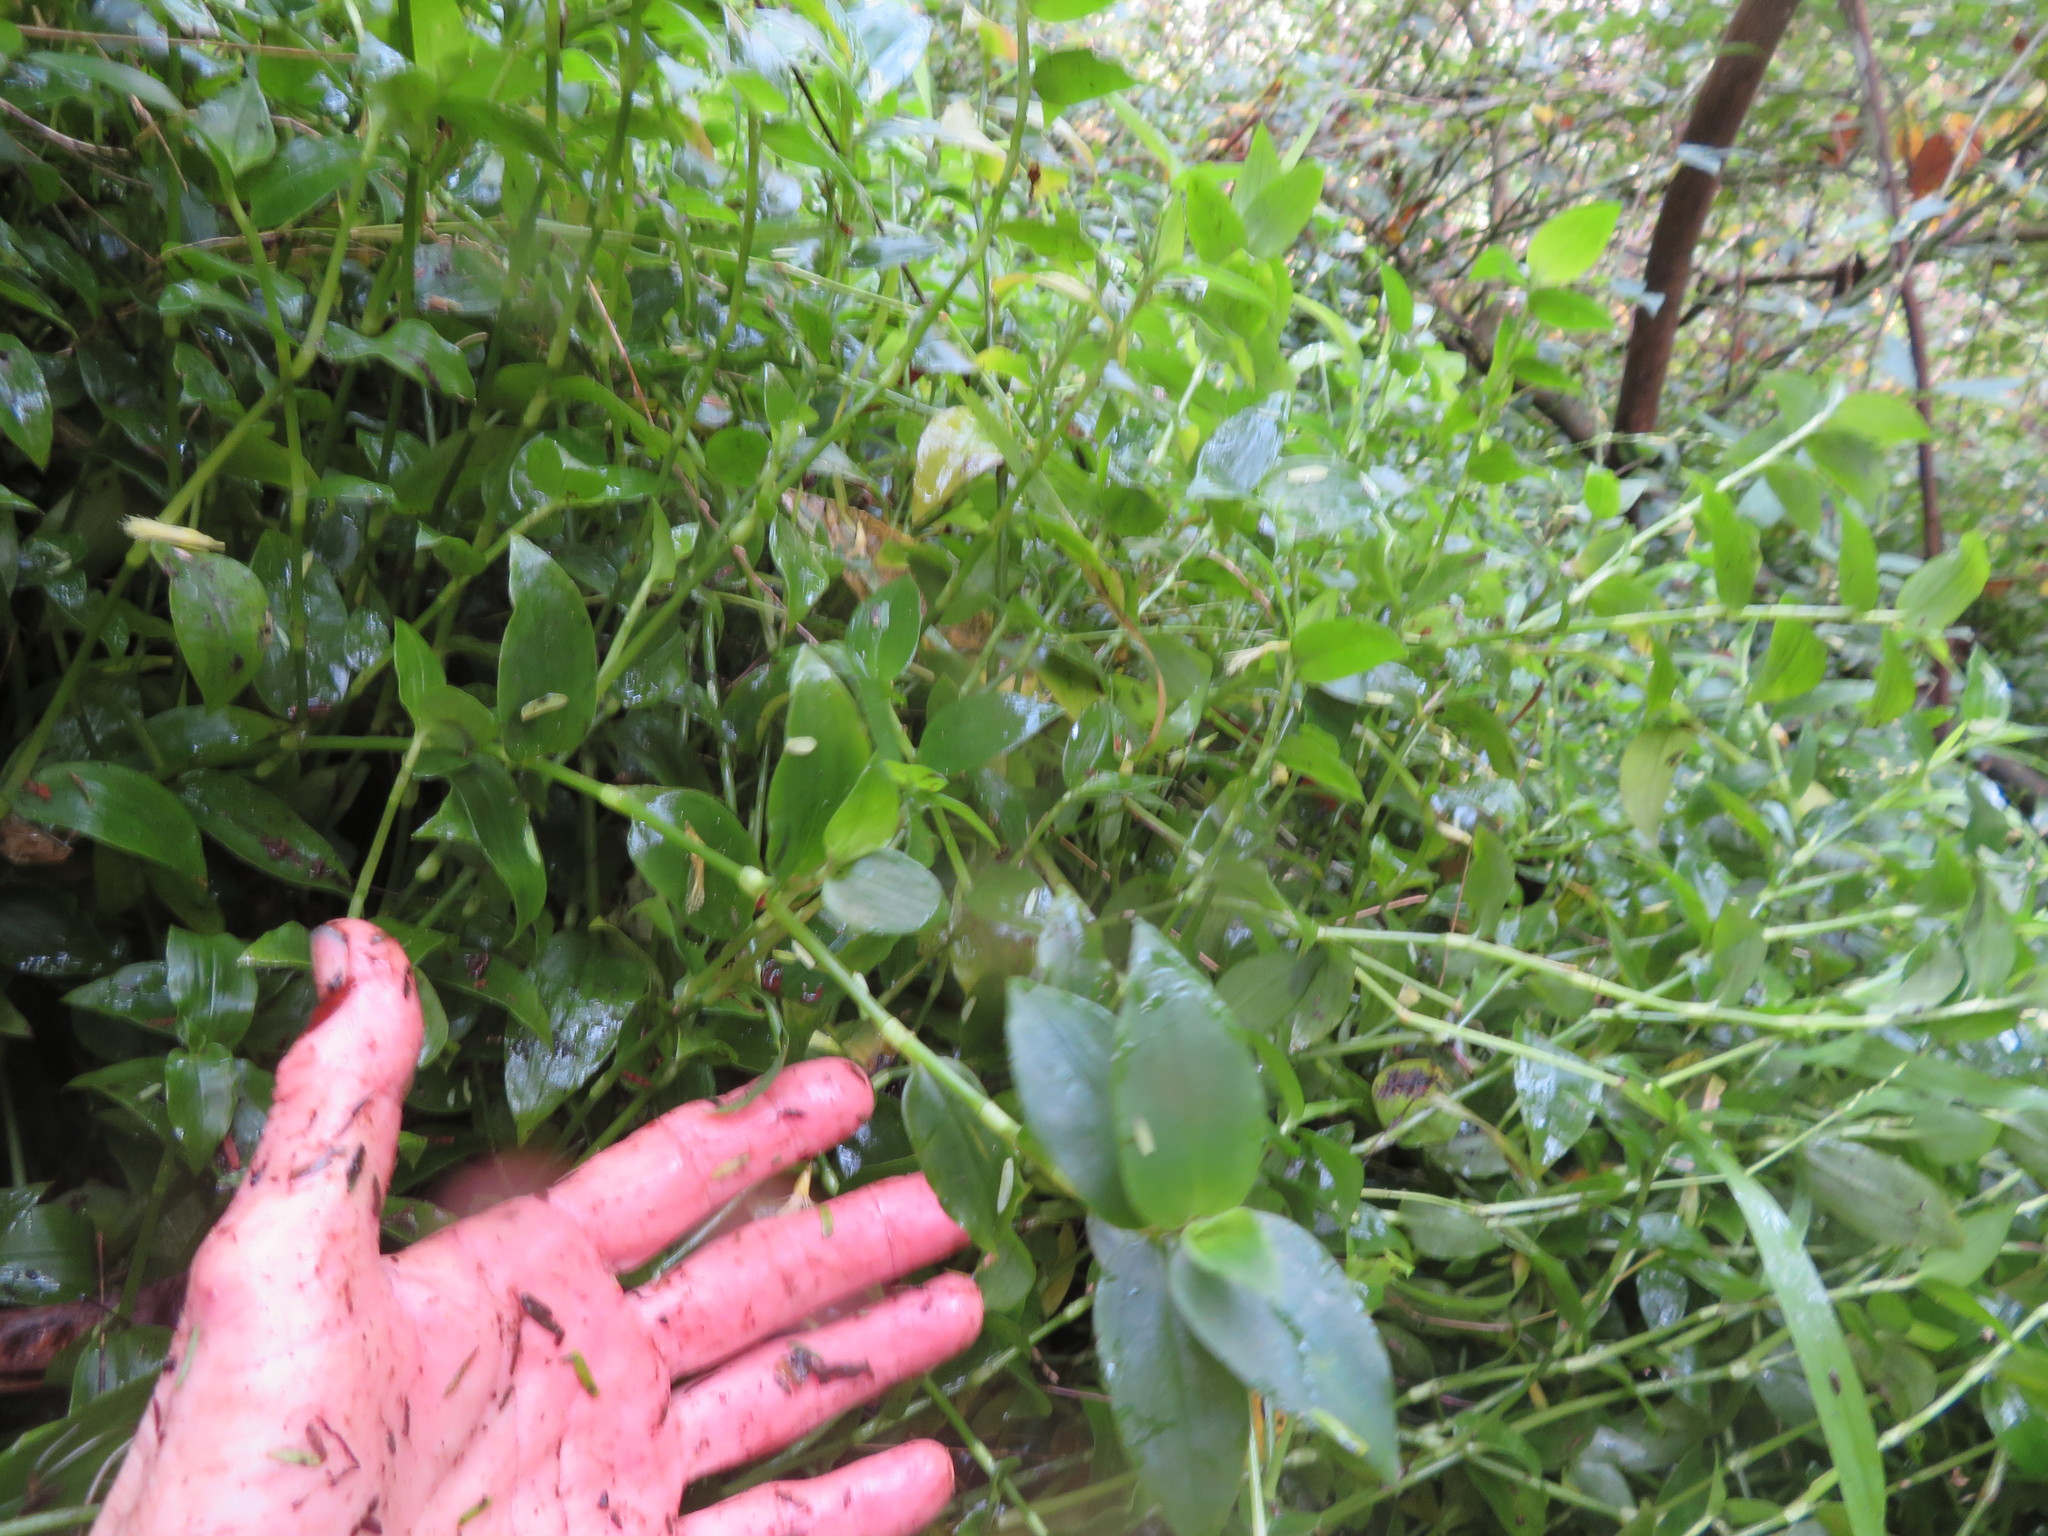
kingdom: Plantae
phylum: Tracheophyta
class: Liliopsida
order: Commelinales
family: Commelinaceae
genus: Tradescantia
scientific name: Tradescantia fluminensis
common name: Wandering-jew
